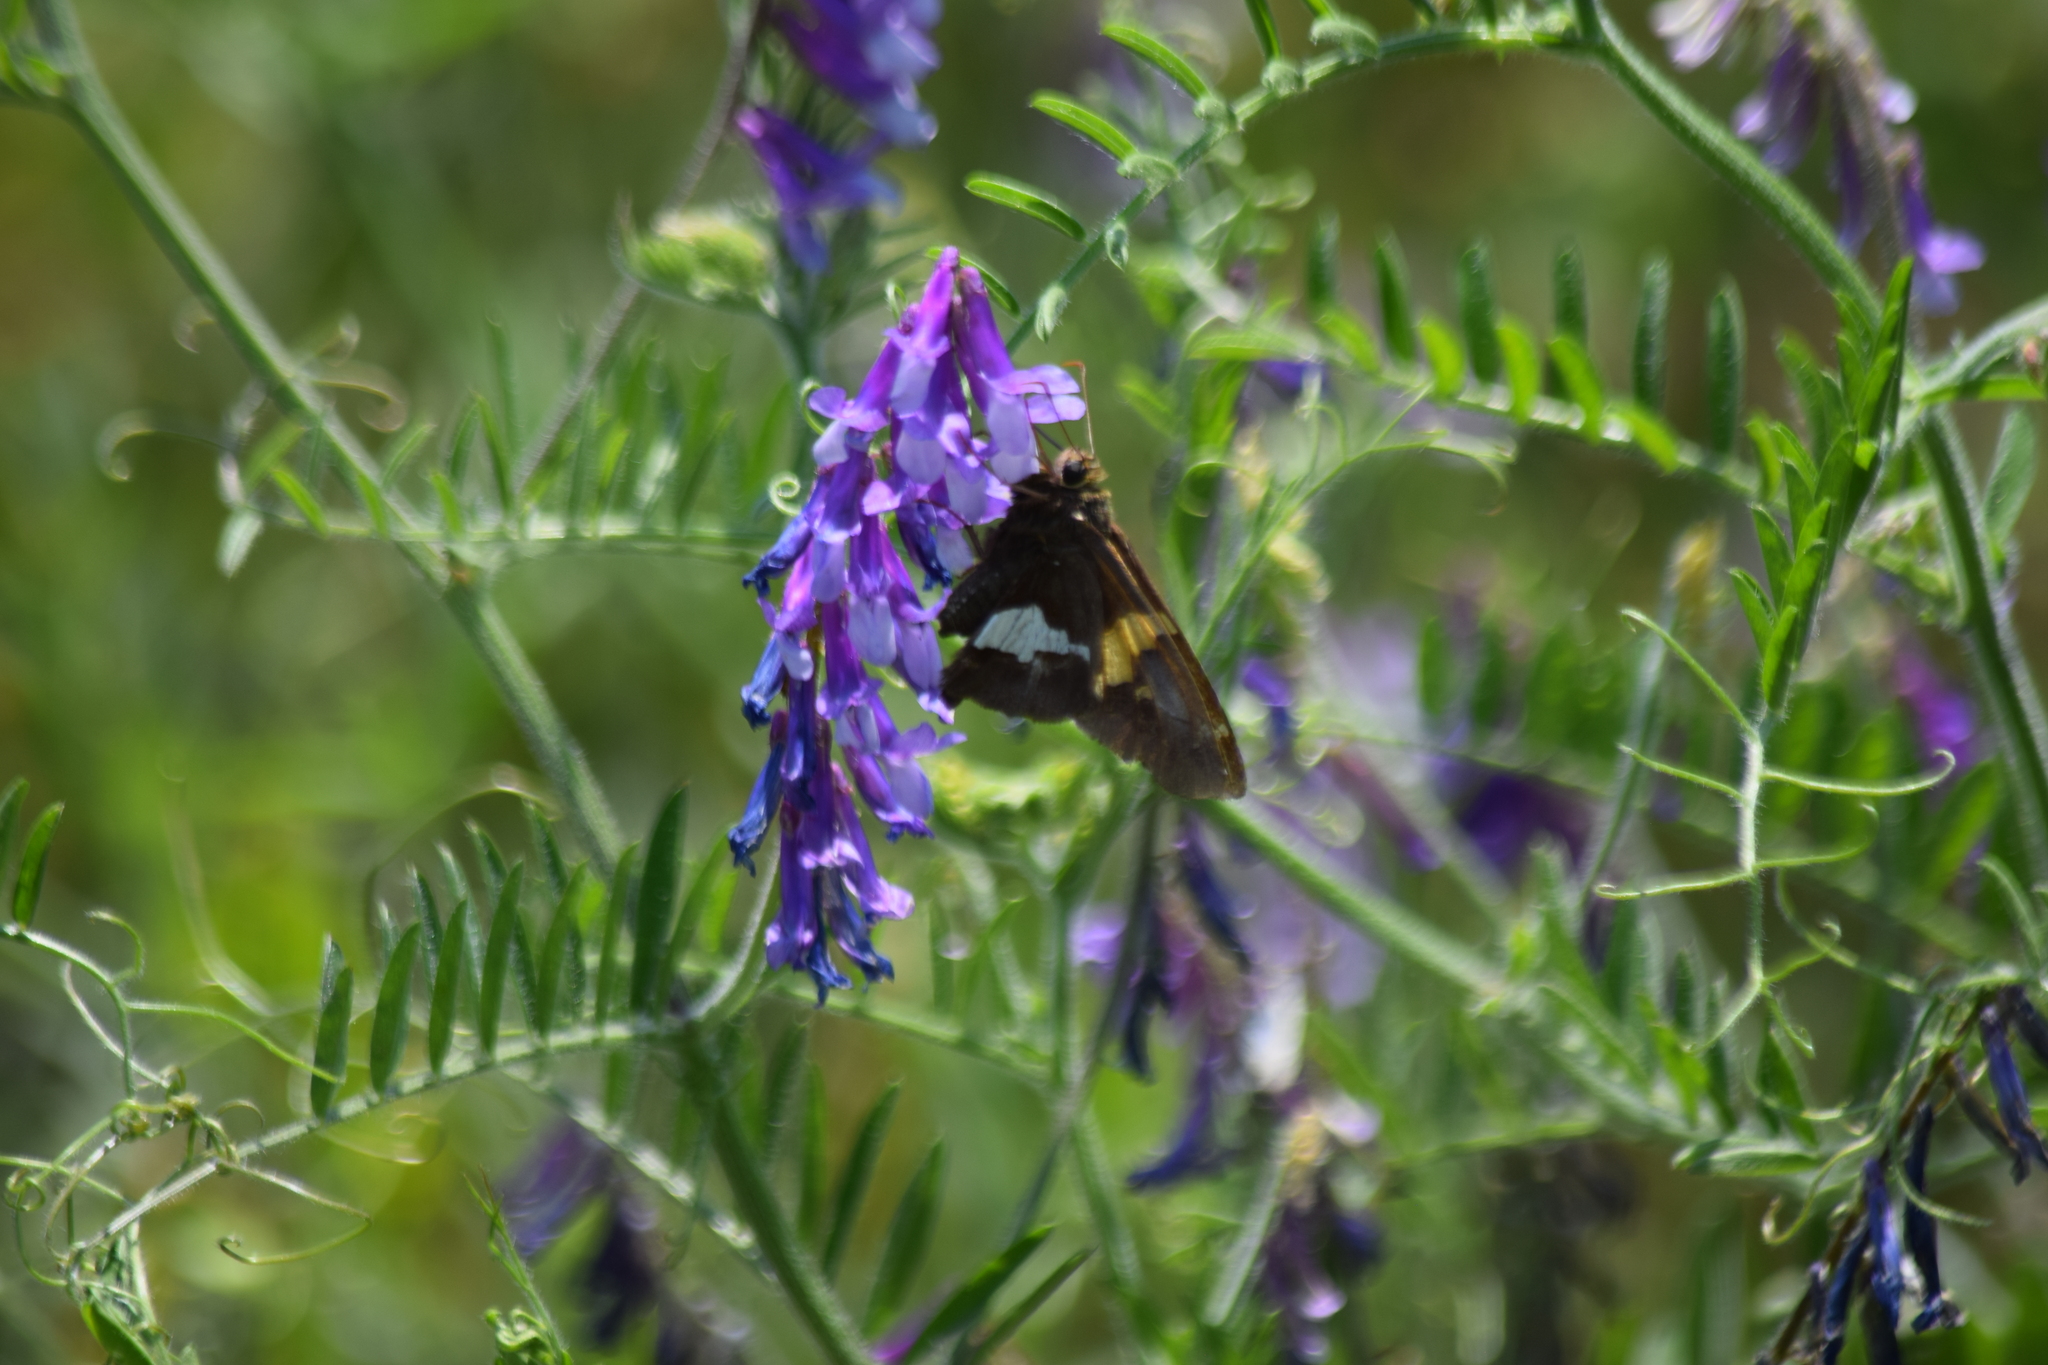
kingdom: Animalia
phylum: Arthropoda
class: Insecta
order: Lepidoptera
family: Hesperiidae
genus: Epargyreus
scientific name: Epargyreus clarus
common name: Silver-spotted skipper
